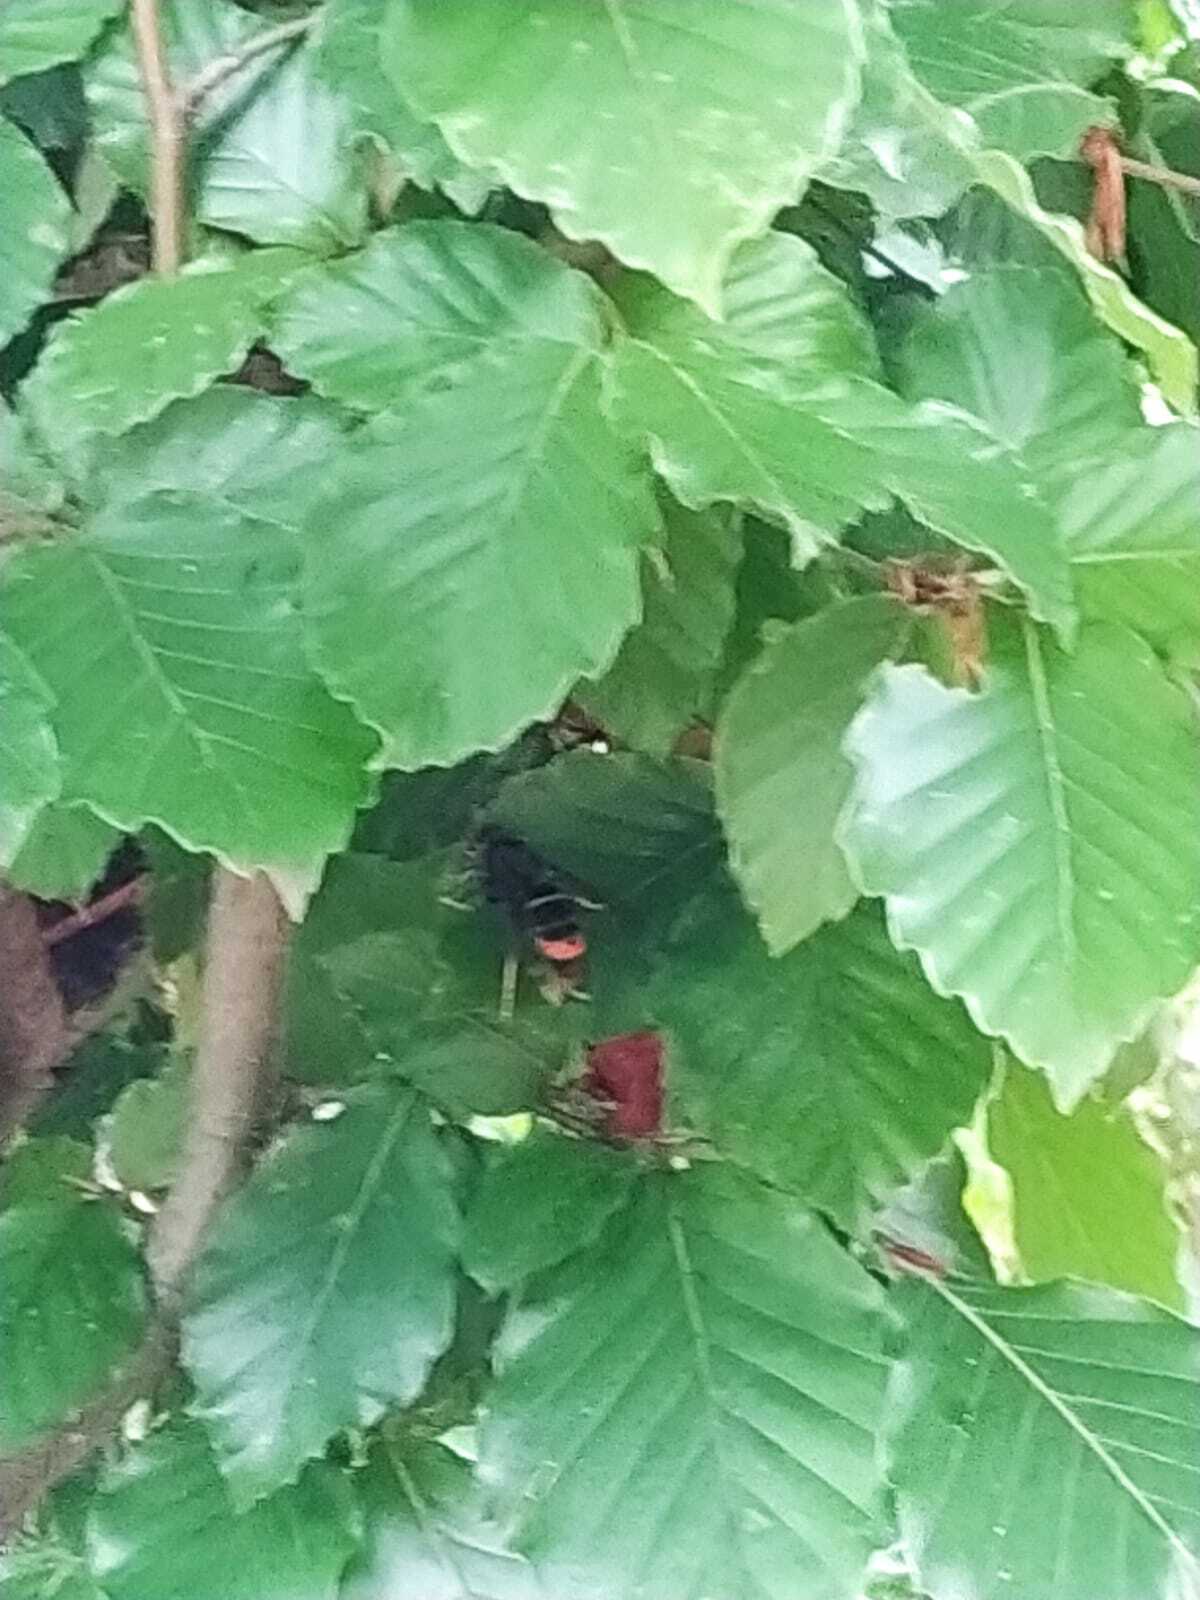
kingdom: Animalia
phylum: Arthropoda
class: Insecta
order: Hymenoptera
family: Vespidae
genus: Vespa
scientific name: Vespa velutina
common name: Asian hornet
